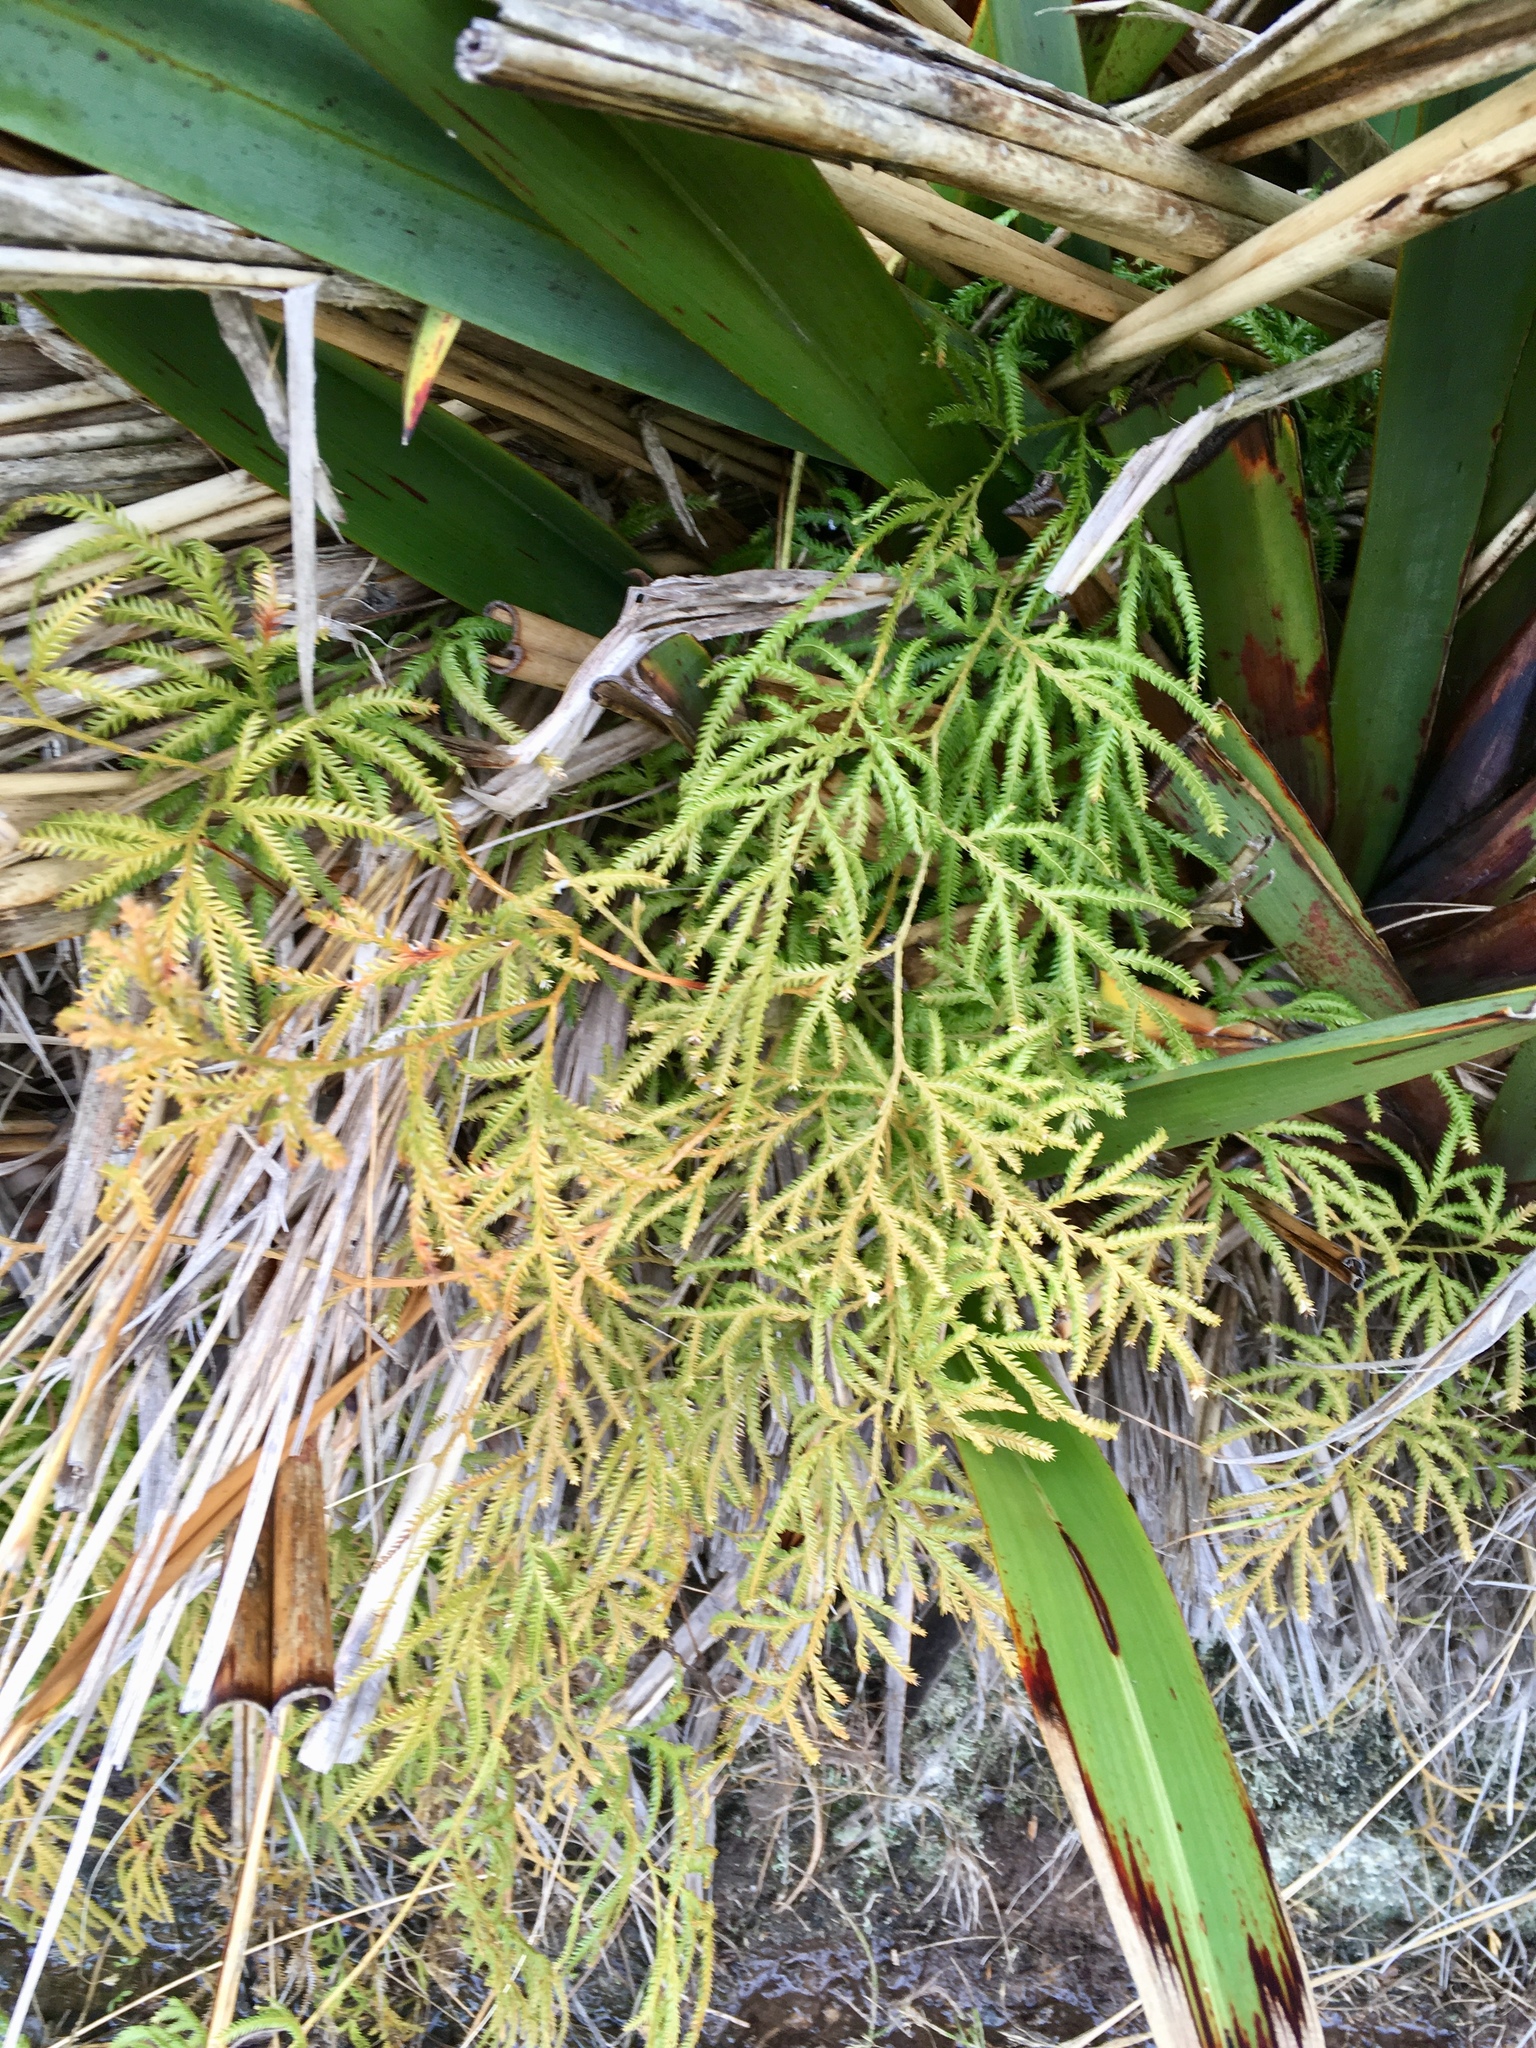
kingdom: Plantae
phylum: Tracheophyta
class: Lycopodiopsida
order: Lycopodiales
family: Lycopodiaceae
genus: Lycopodium
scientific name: Lycopodium volubile
